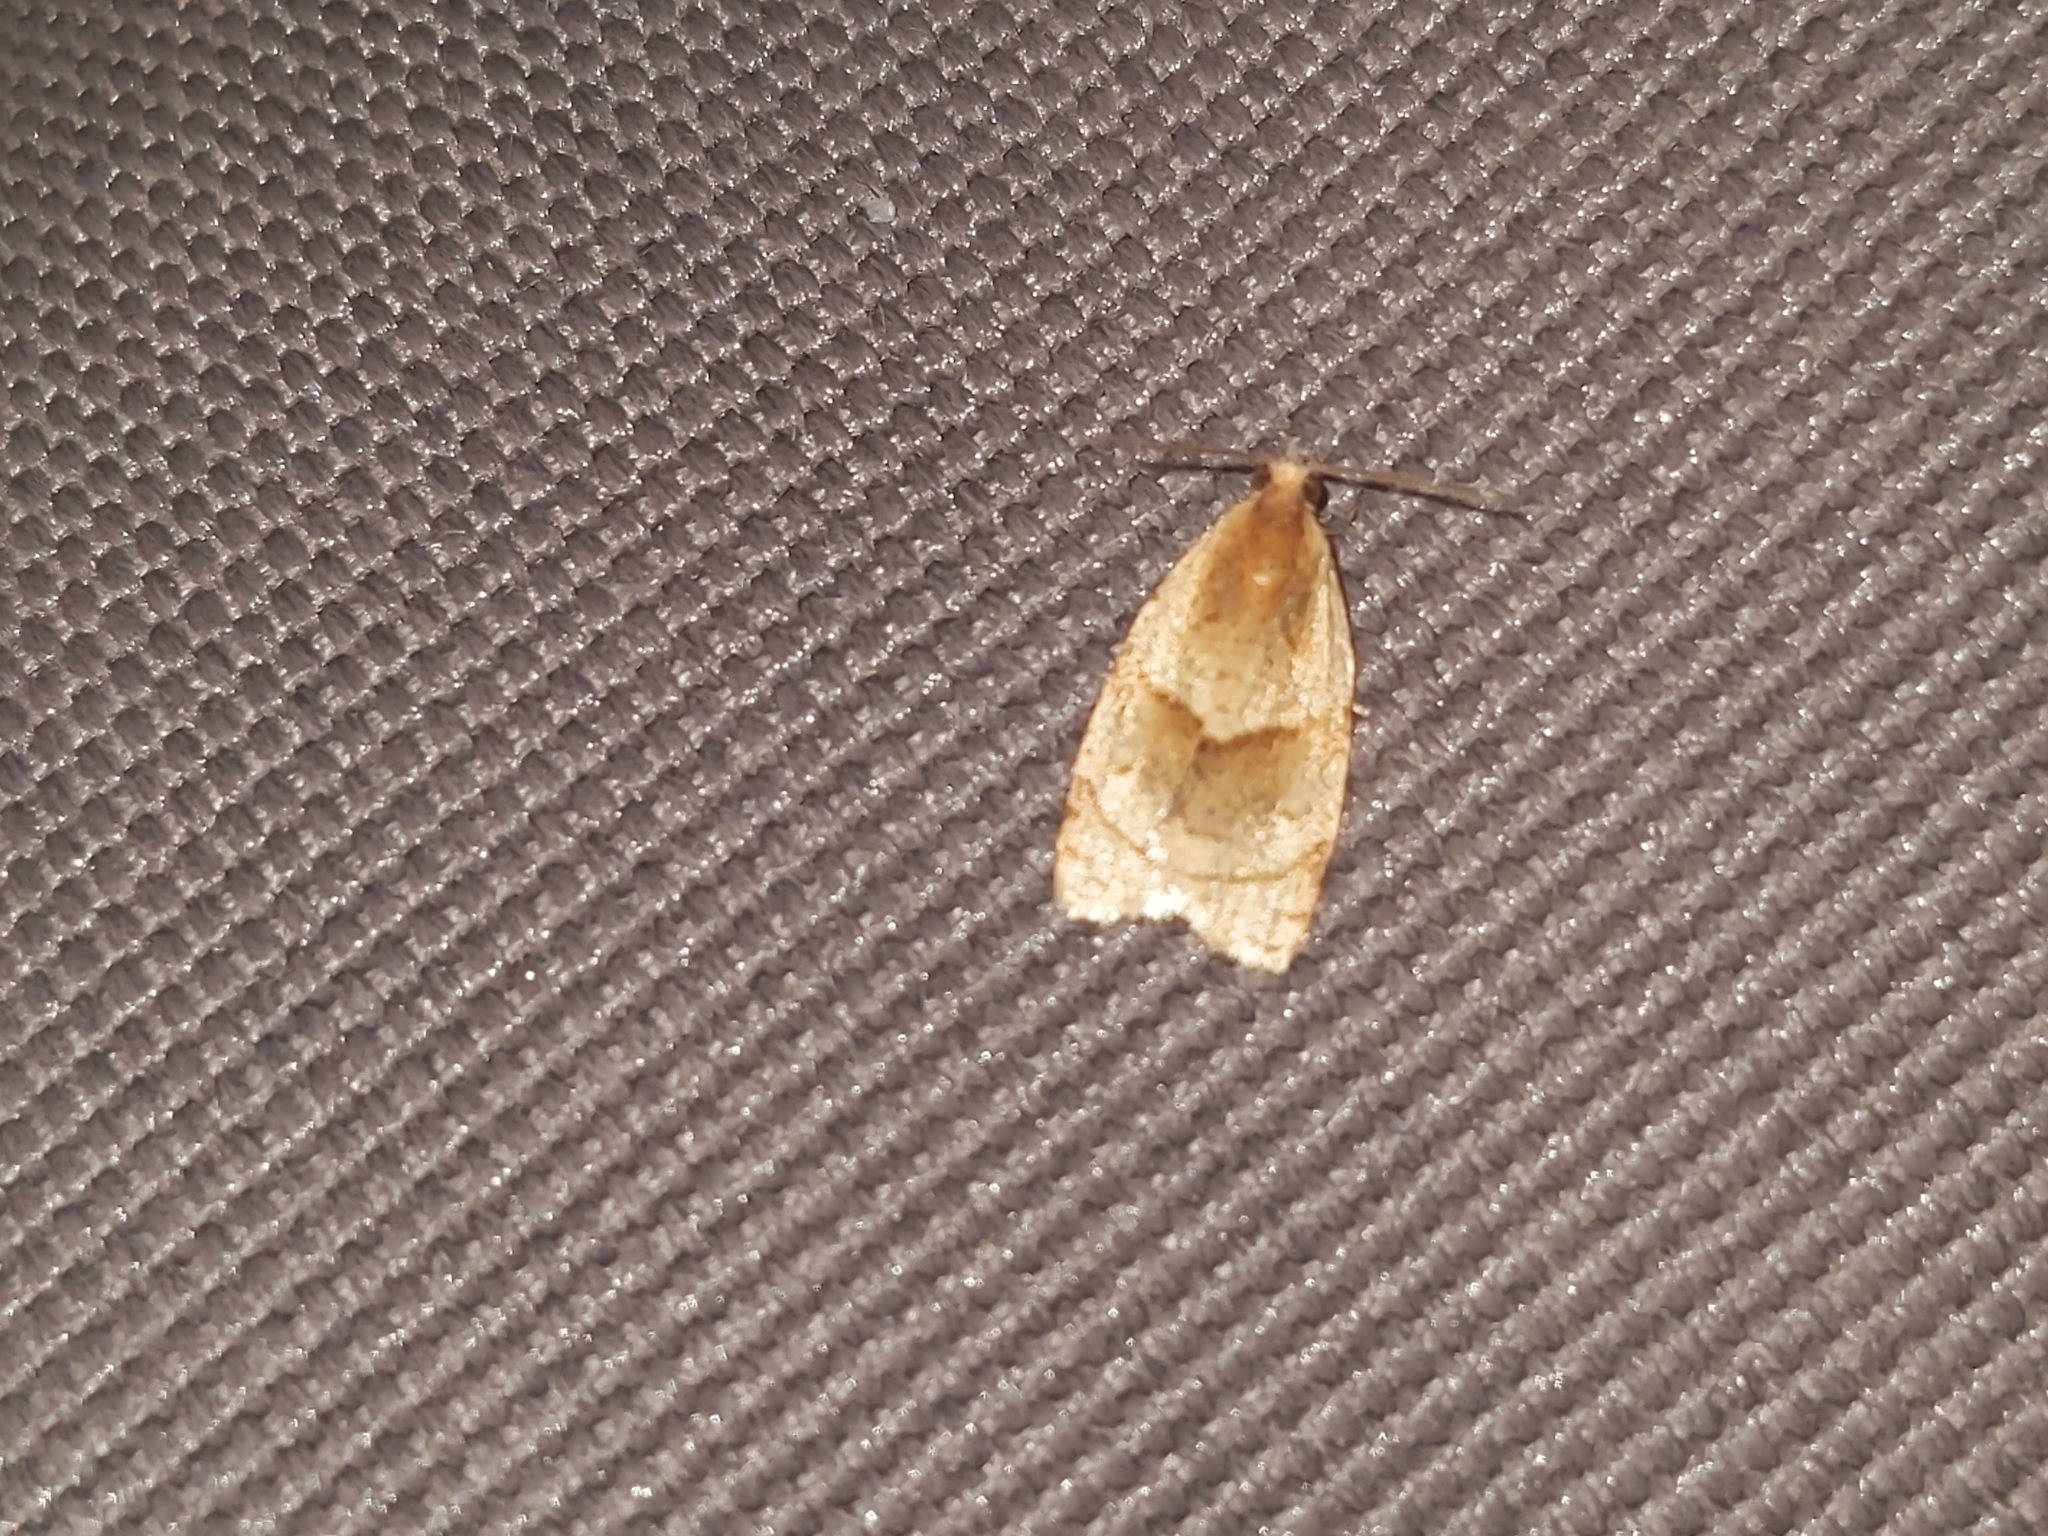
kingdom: Animalia
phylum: Arthropoda
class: Insecta
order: Lepidoptera
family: Tortricidae
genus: Clepsis
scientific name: Clepsis rurinana
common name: Pale twist
